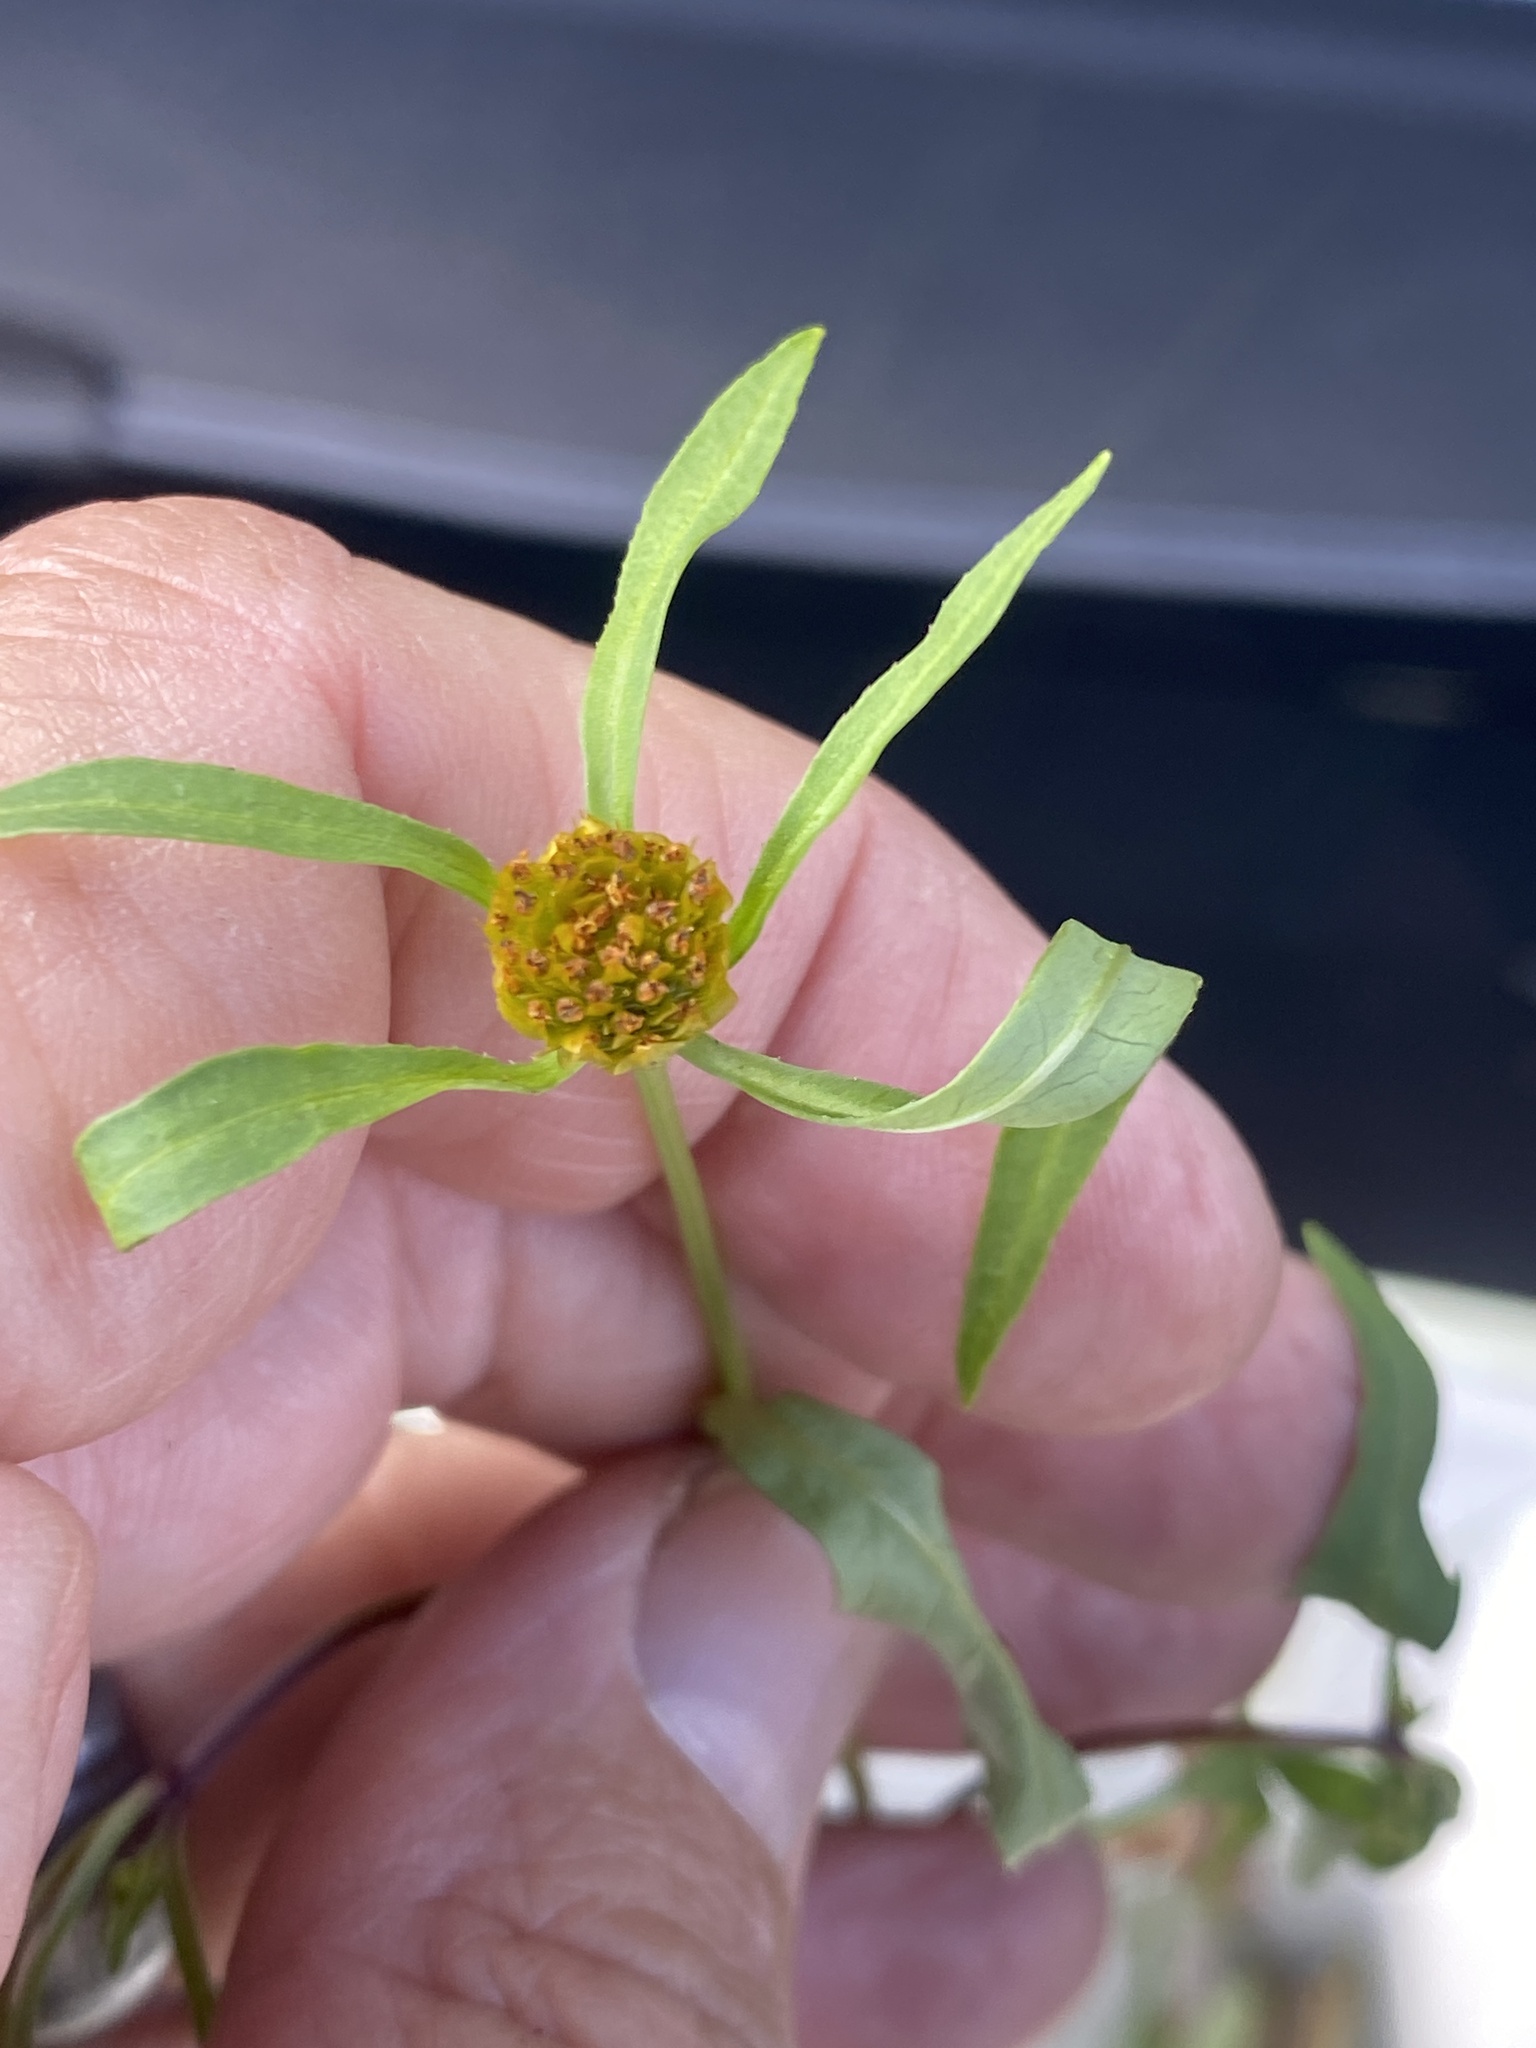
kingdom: Plantae
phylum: Tracheophyta
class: Magnoliopsida
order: Asterales
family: Asteraceae
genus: Bidens
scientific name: Bidens connata
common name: London bur-marigold
